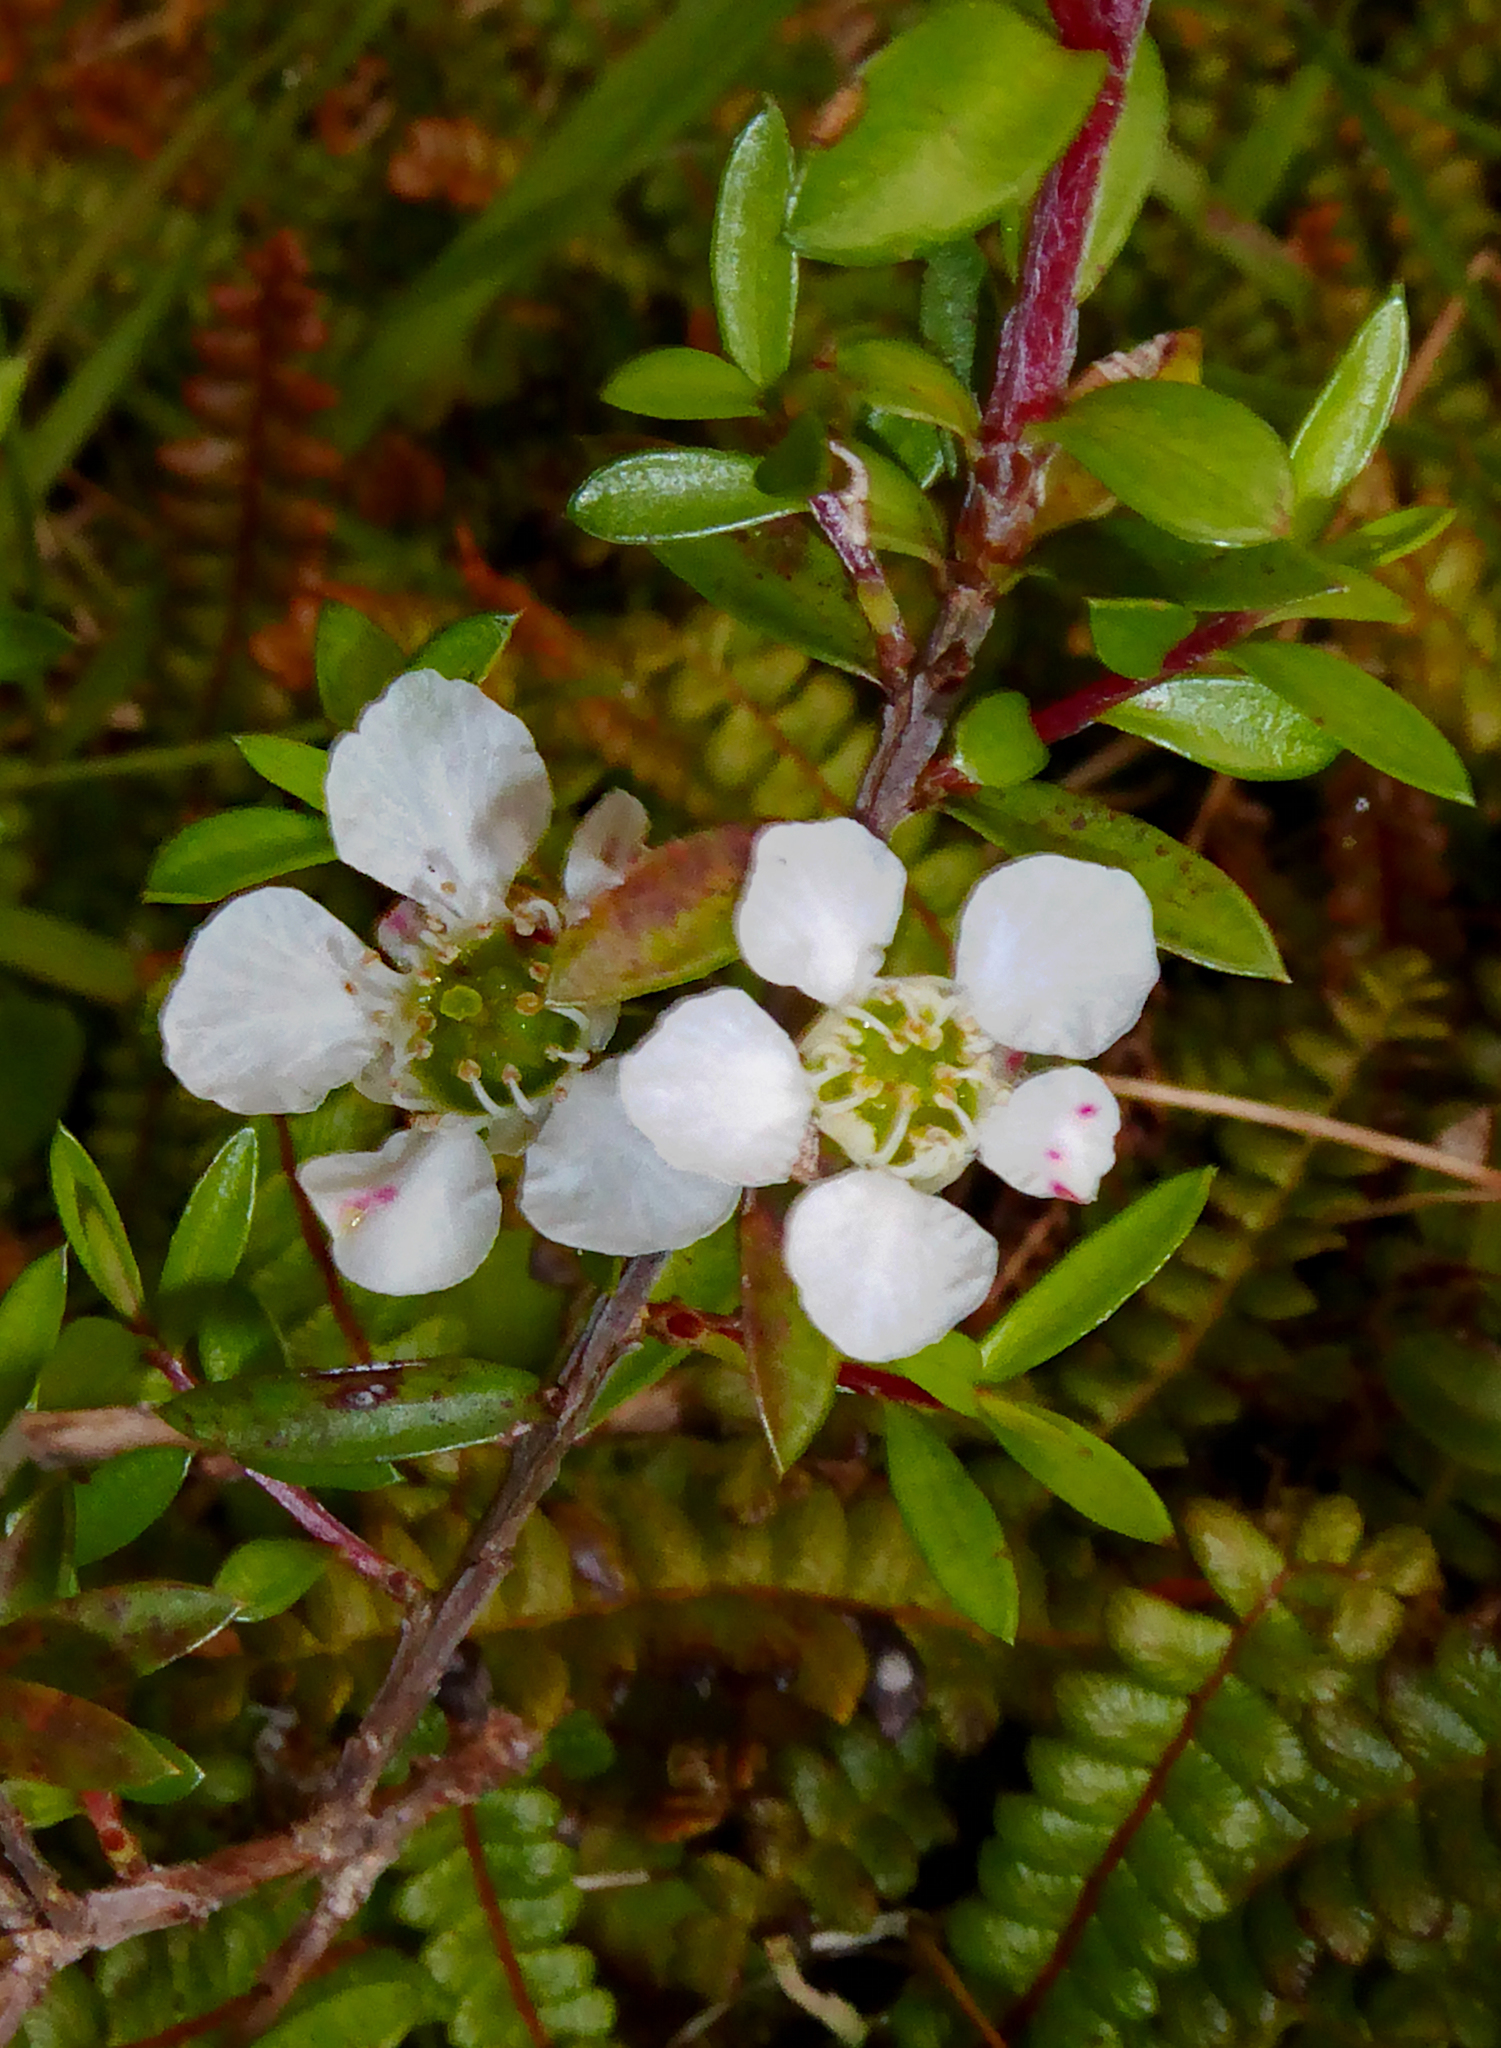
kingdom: Plantae
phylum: Tracheophyta
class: Magnoliopsida
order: Myrtales
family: Myrtaceae
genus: Leptospermum
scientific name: Leptospermum scoparium
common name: Broom tea-tree
